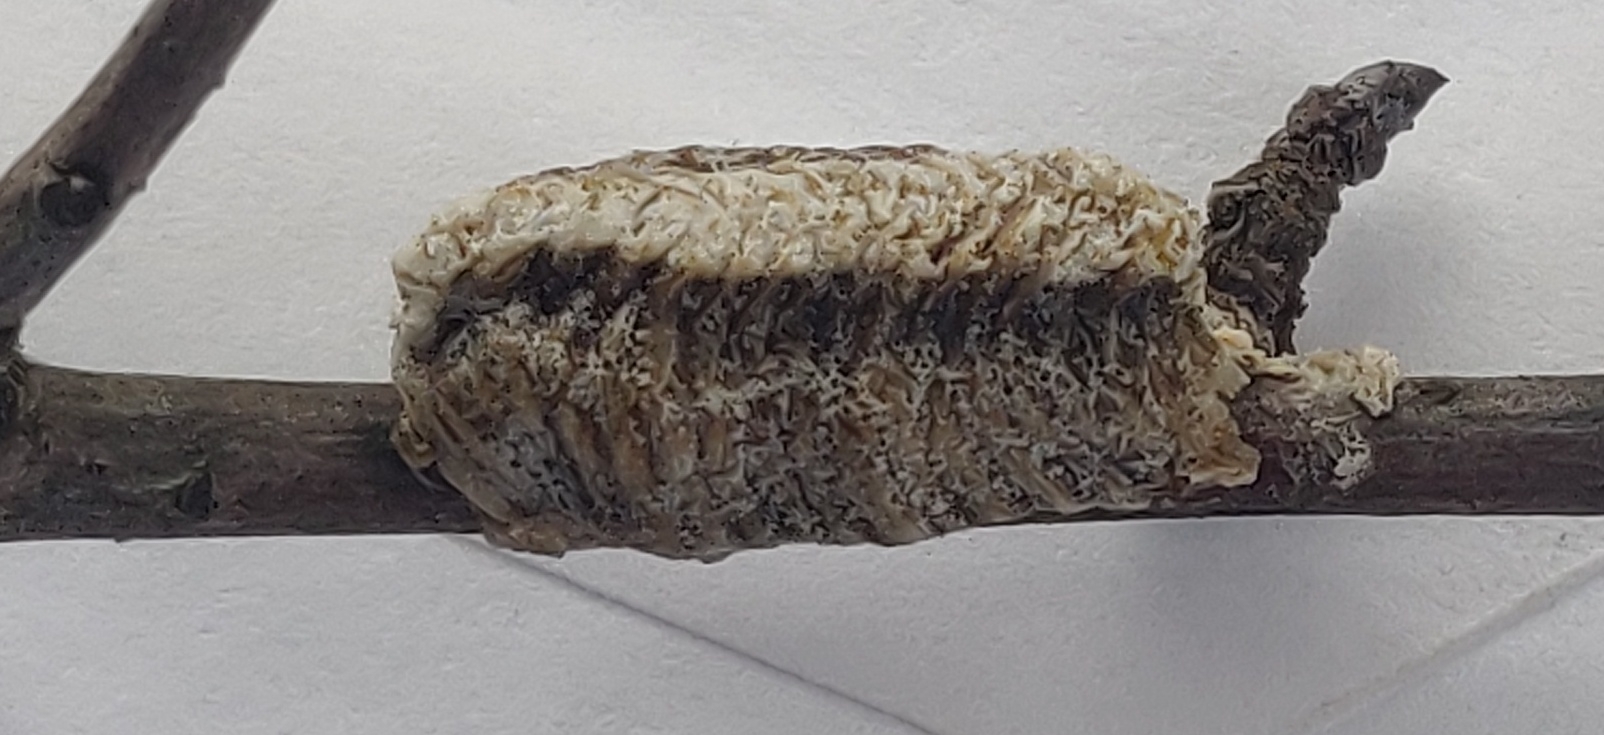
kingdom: Animalia
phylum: Arthropoda
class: Insecta
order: Mantodea
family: Mantidae
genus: Stagmomantis
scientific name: Stagmomantis carolina
